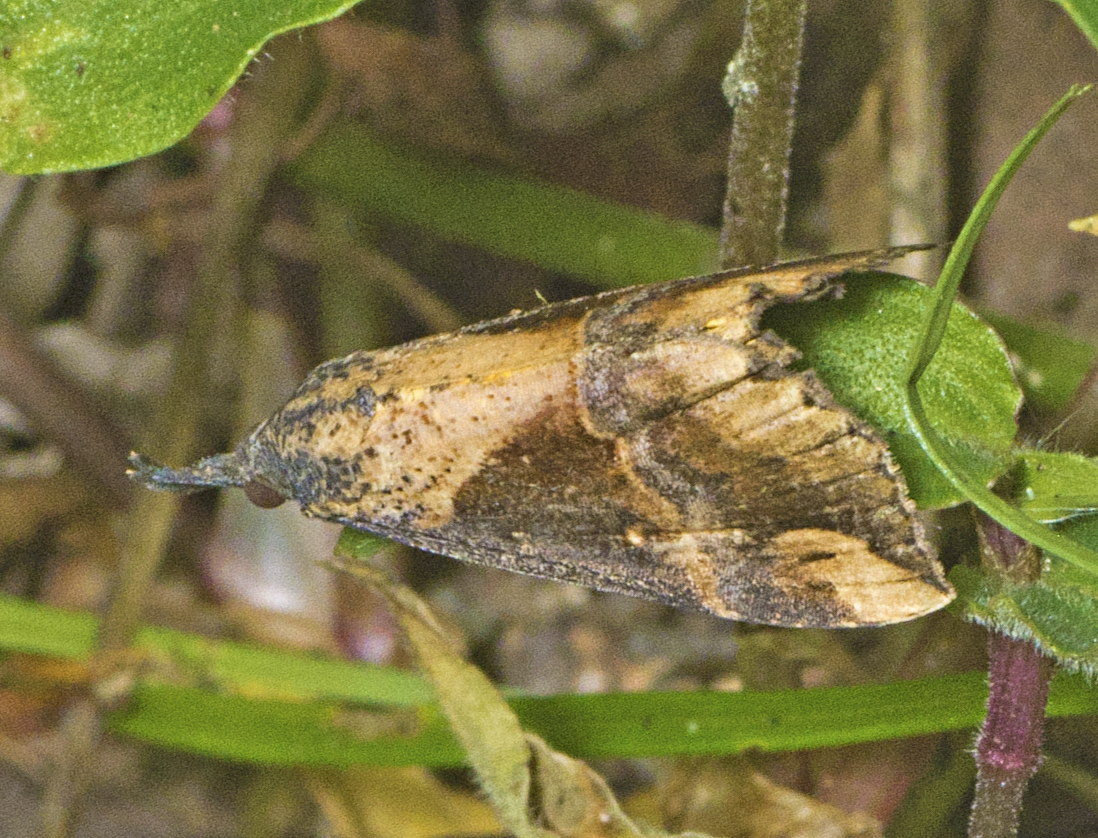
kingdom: Animalia
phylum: Arthropoda
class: Insecta
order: Lepidoptera
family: Erebidae
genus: Hypena
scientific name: Hypena Dichromia quinqualis
